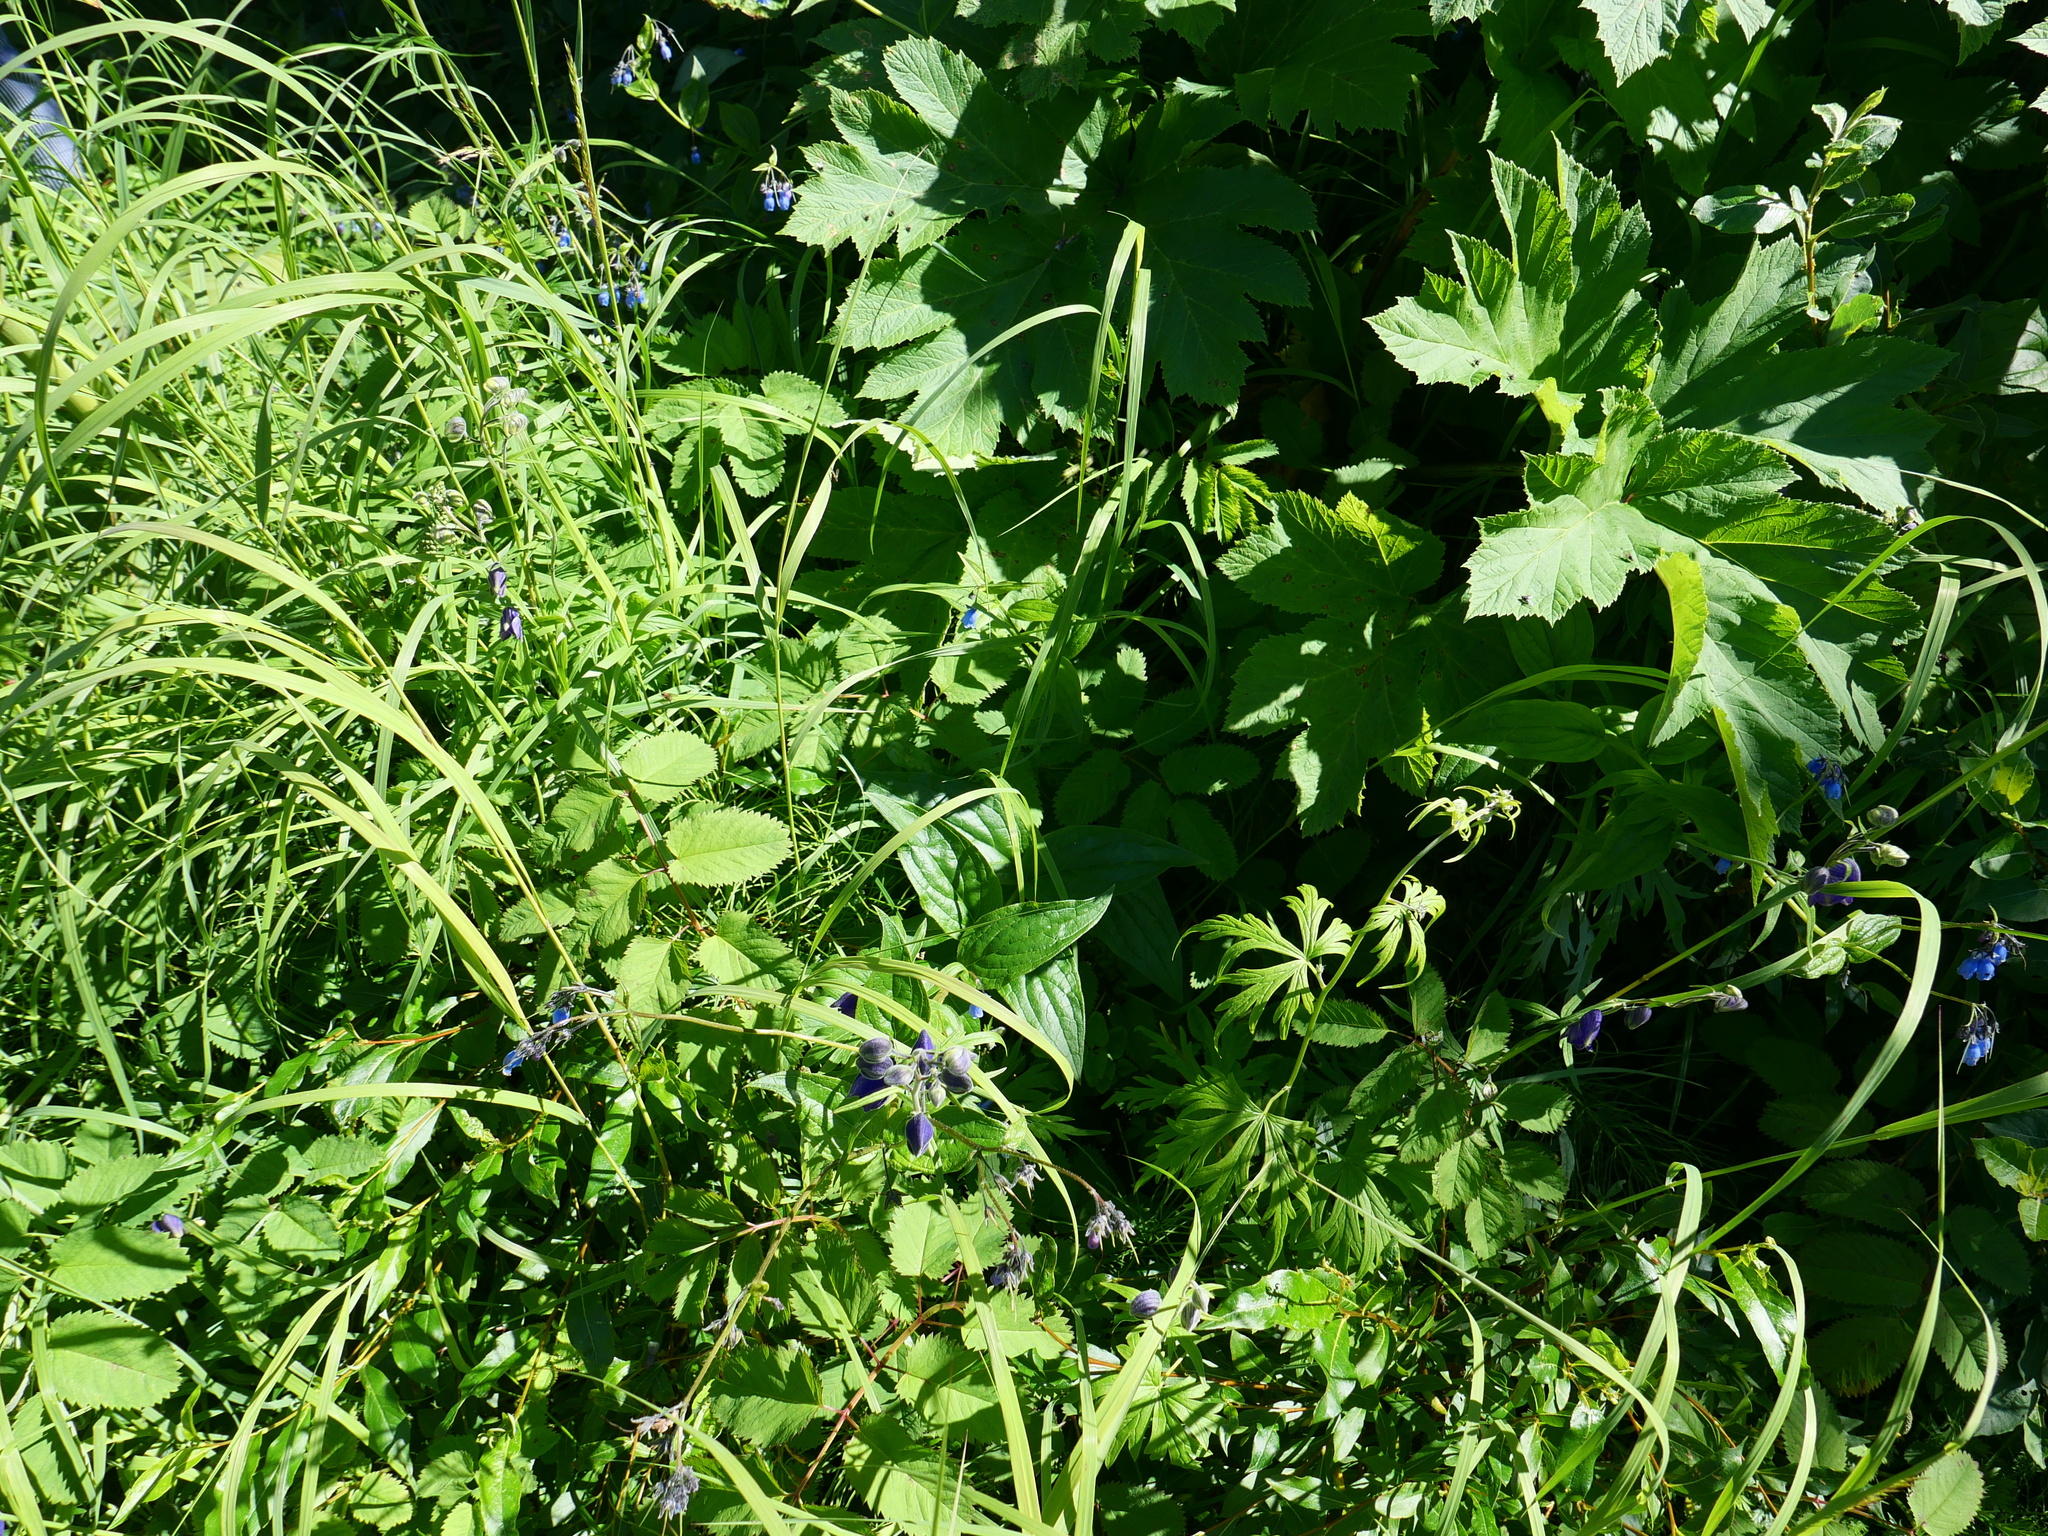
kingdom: Plantae
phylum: Tracheophyta
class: Magnoliopsida
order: Boraginales
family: Boraginaceae
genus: Mertensia
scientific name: Mertensia paniculata
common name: Panicled bluebells
